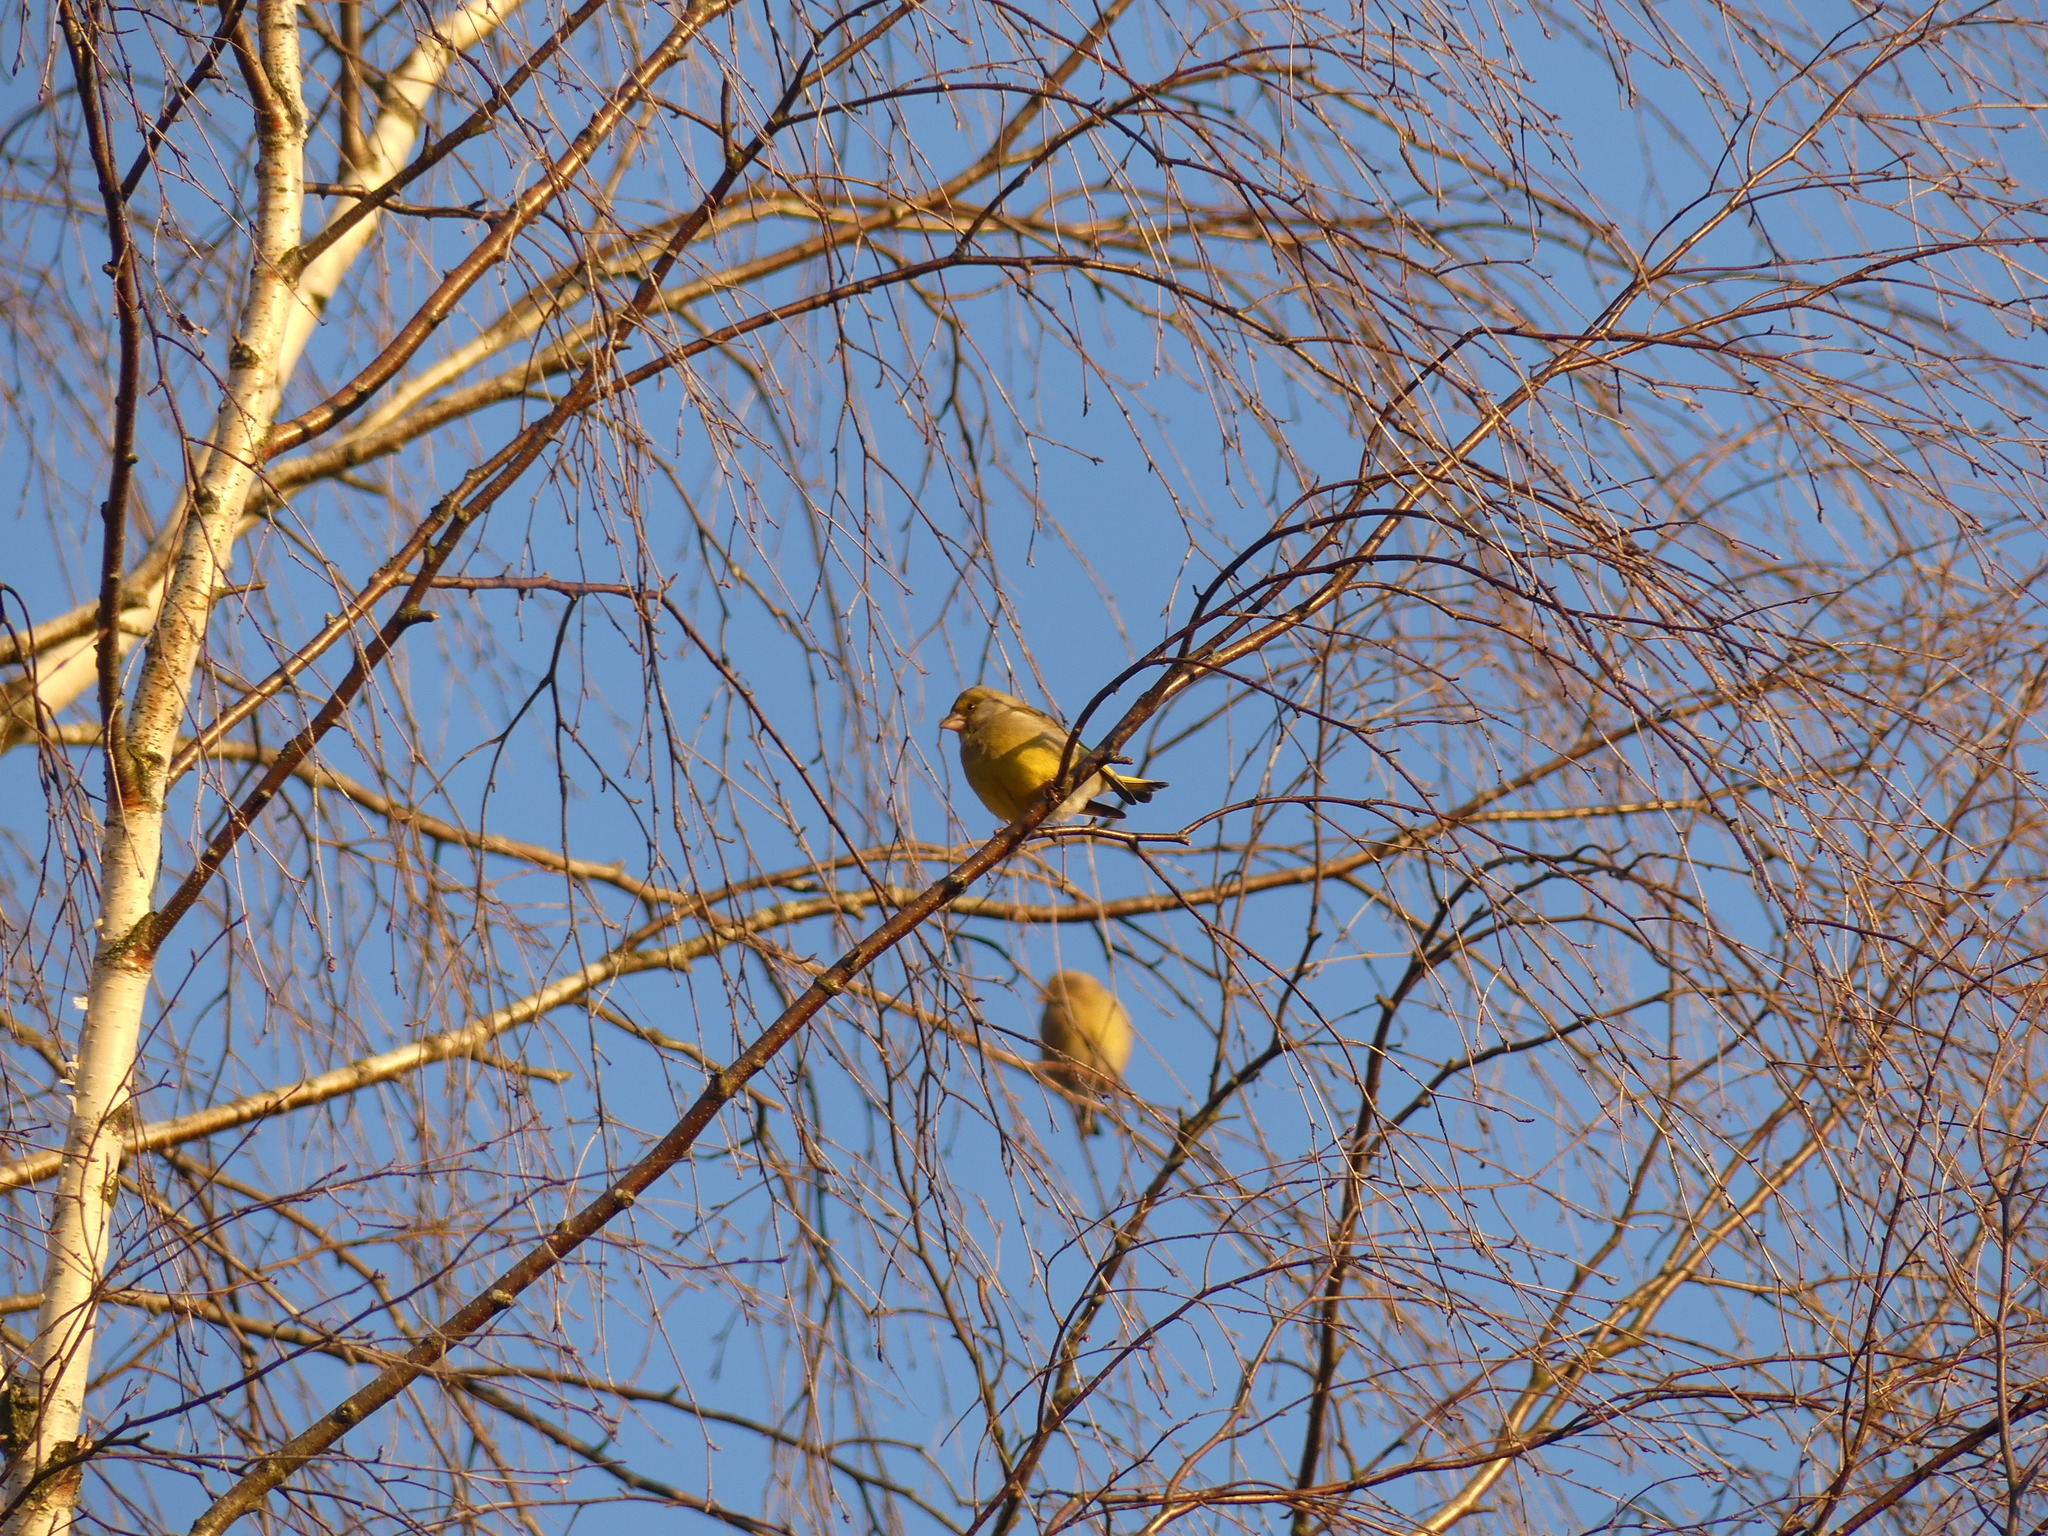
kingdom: Plantae
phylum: Tracheophyta
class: Liliopsida
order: Poales
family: Poaceae
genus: Chloris
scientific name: Chloris chloris
